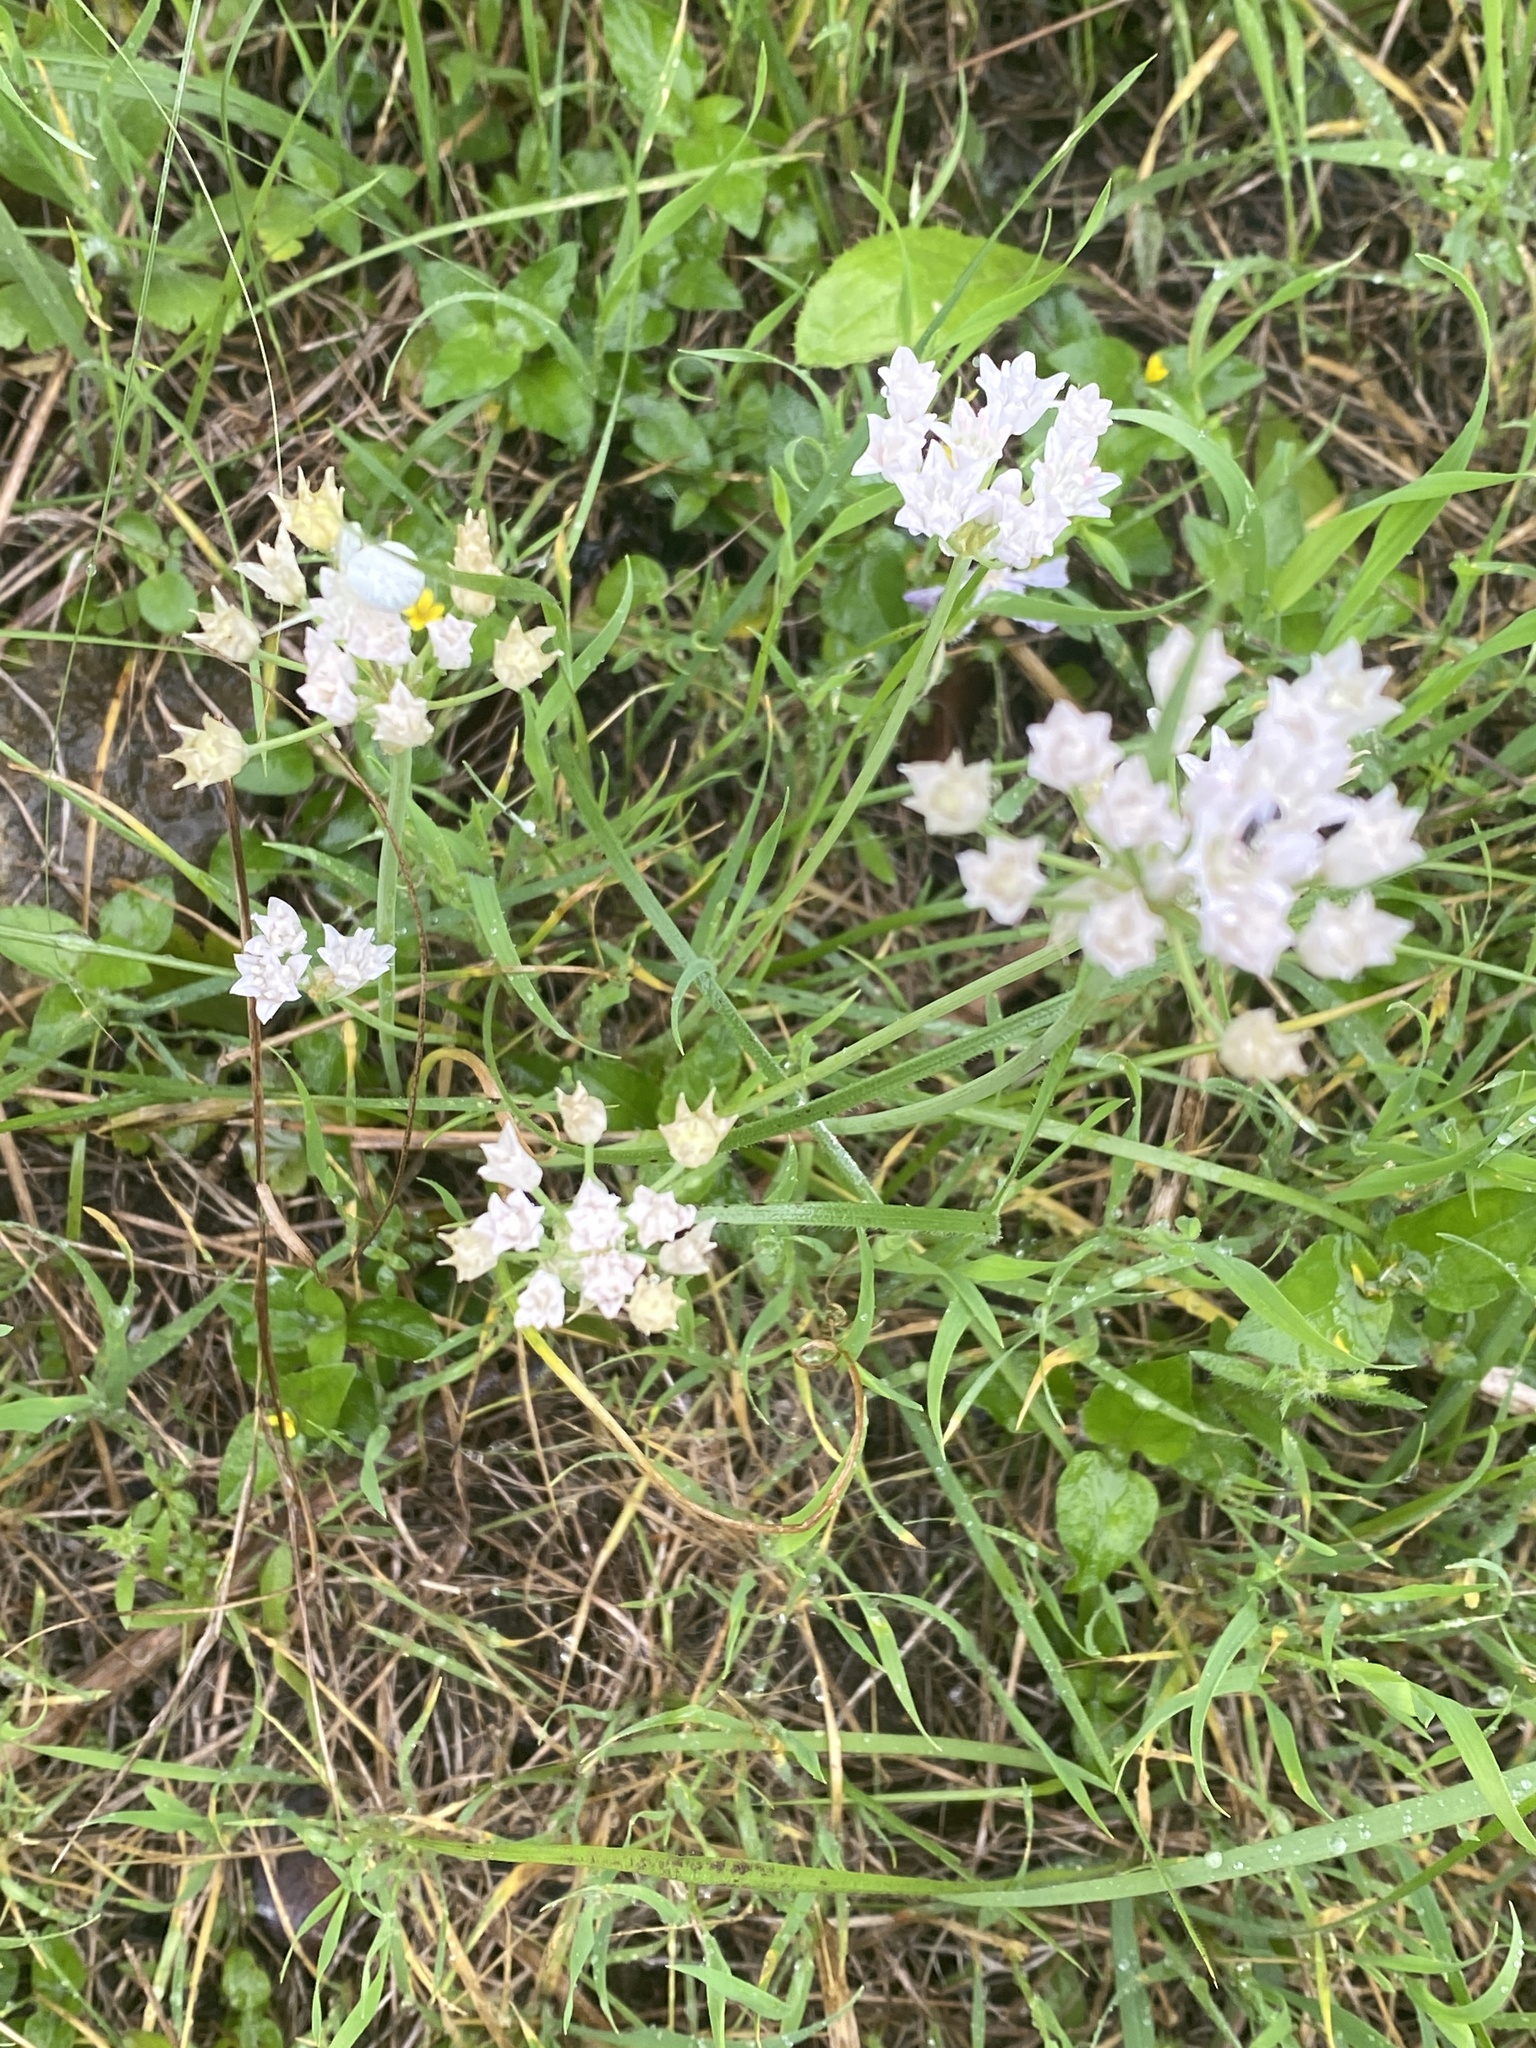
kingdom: Plantae
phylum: Tracheophyta
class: Liliopsida
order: Asparagales
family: Amaryllidaceae
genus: Allium
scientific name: Allium drummondii
